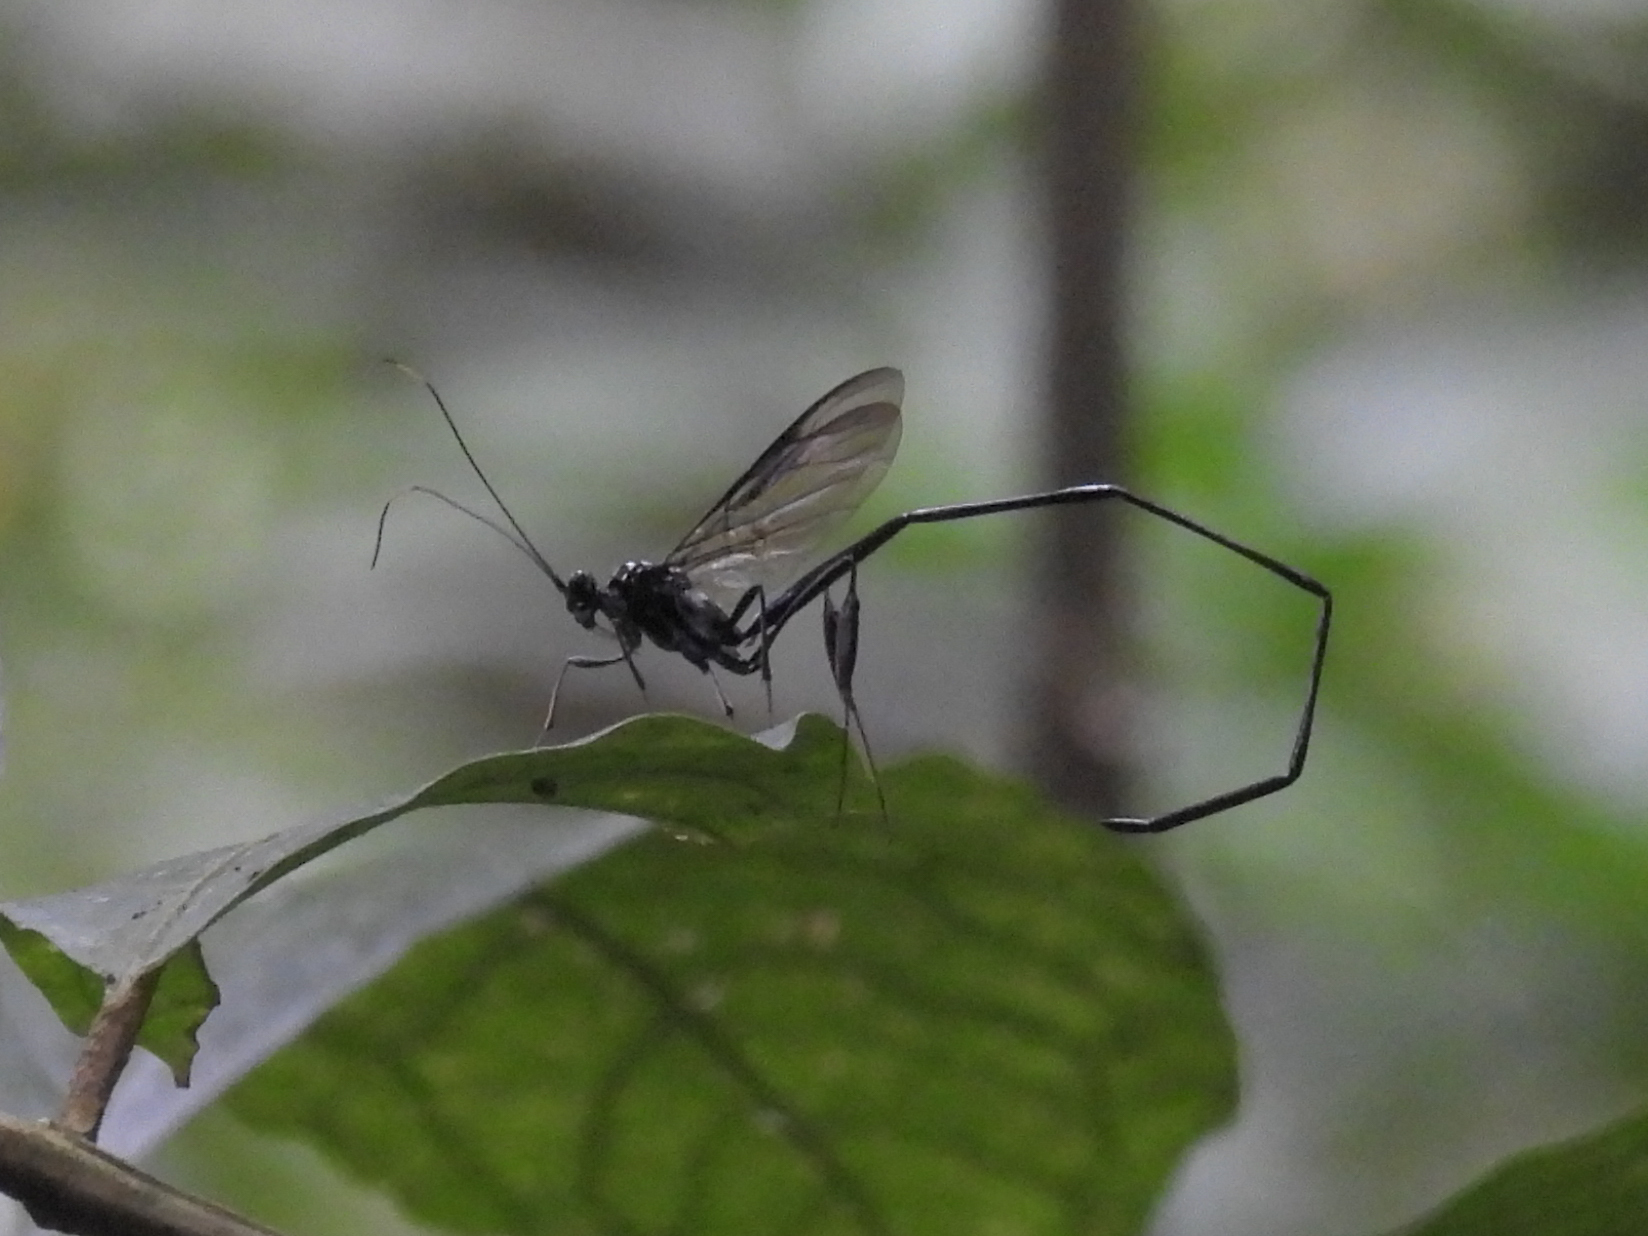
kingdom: Animalia
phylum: Arthropoda
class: Insecta
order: Hymenoptera
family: Pelecinidae
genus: Pelecinus
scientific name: Pelecinus polyturator
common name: American pelecinid wasp
